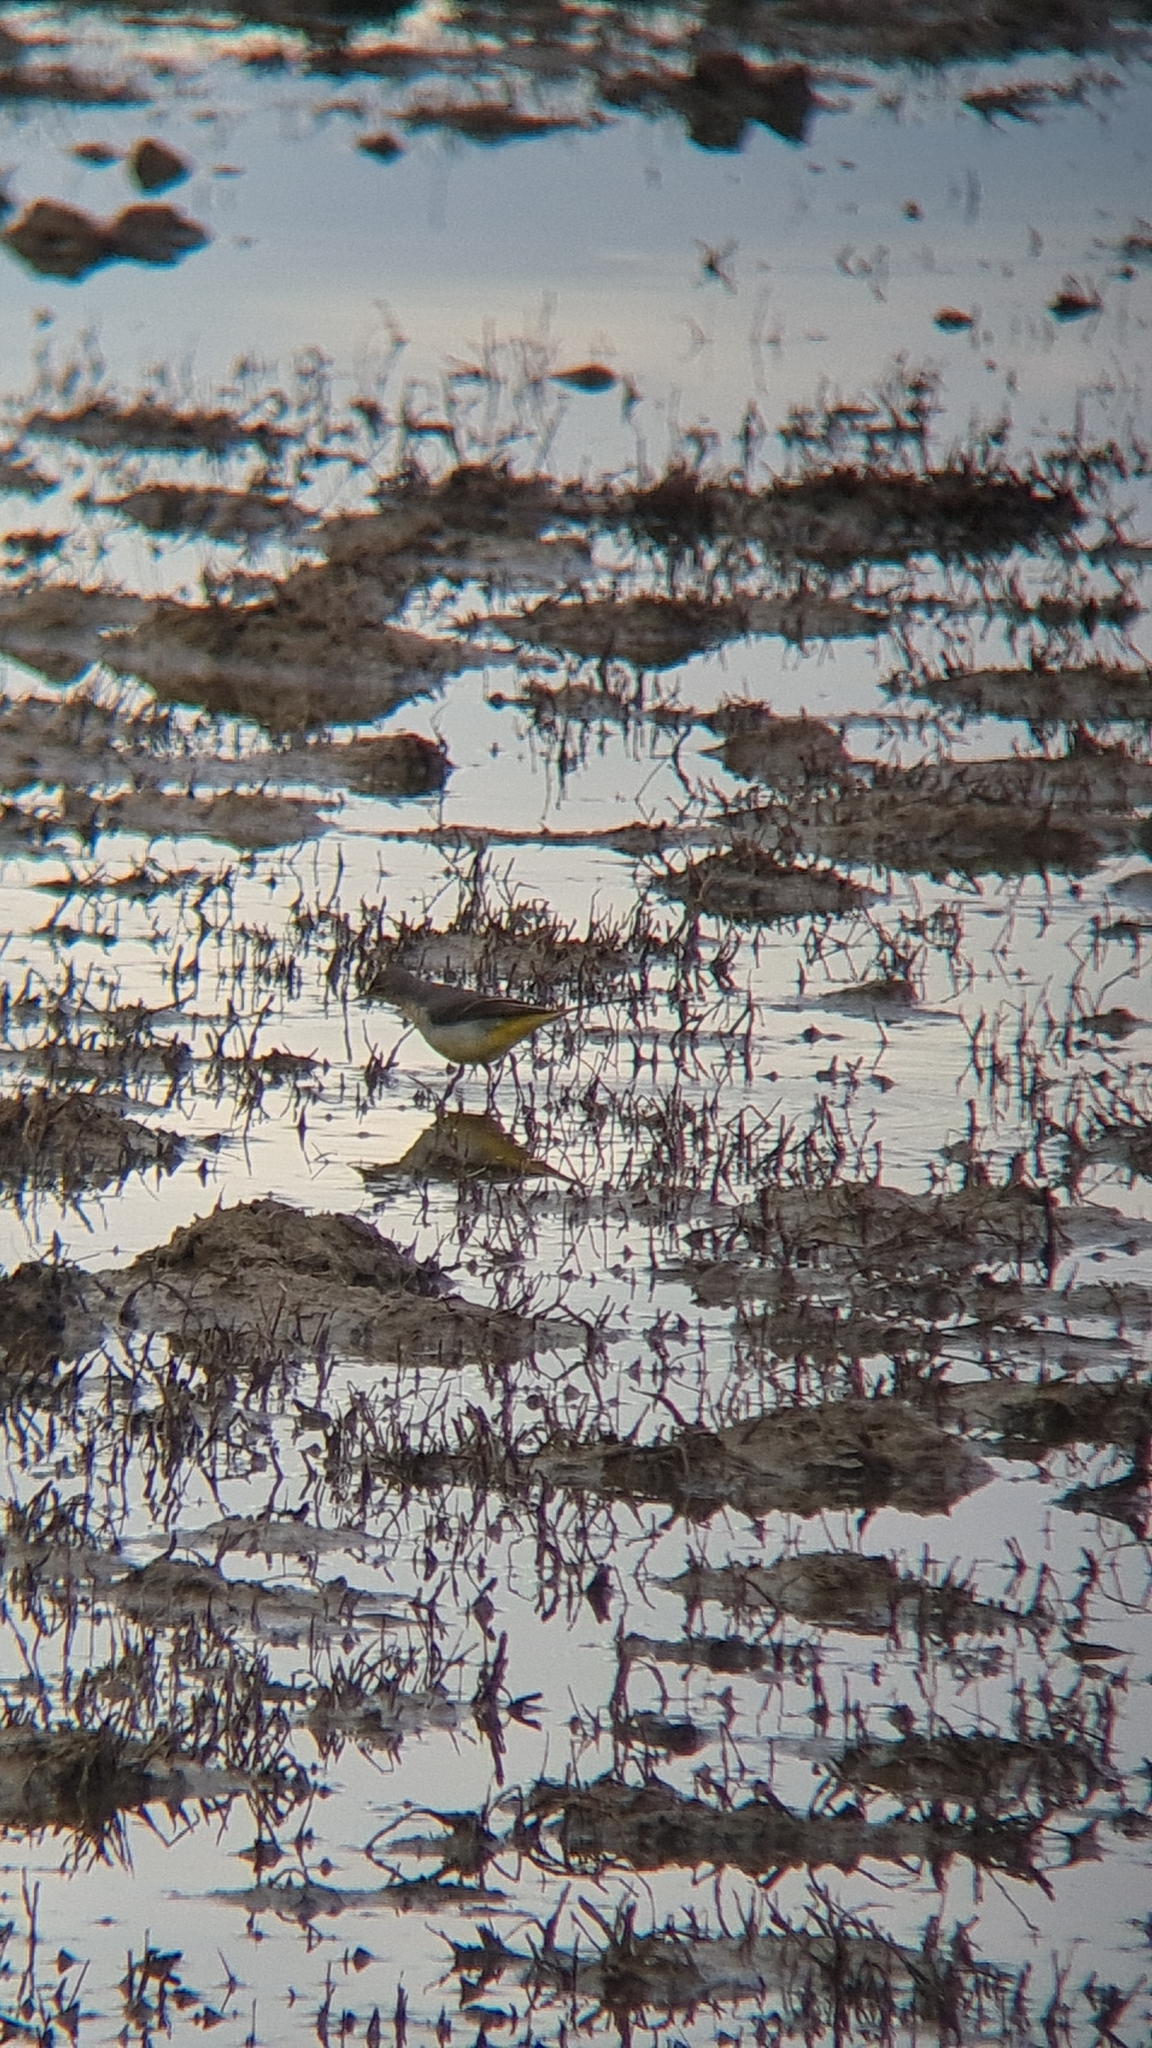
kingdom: Animalia
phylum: Chordata
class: Aves
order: Passeriformes
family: Motacillidae
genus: Motacilla
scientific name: Motacilla cinerea
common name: Grey wagtail
